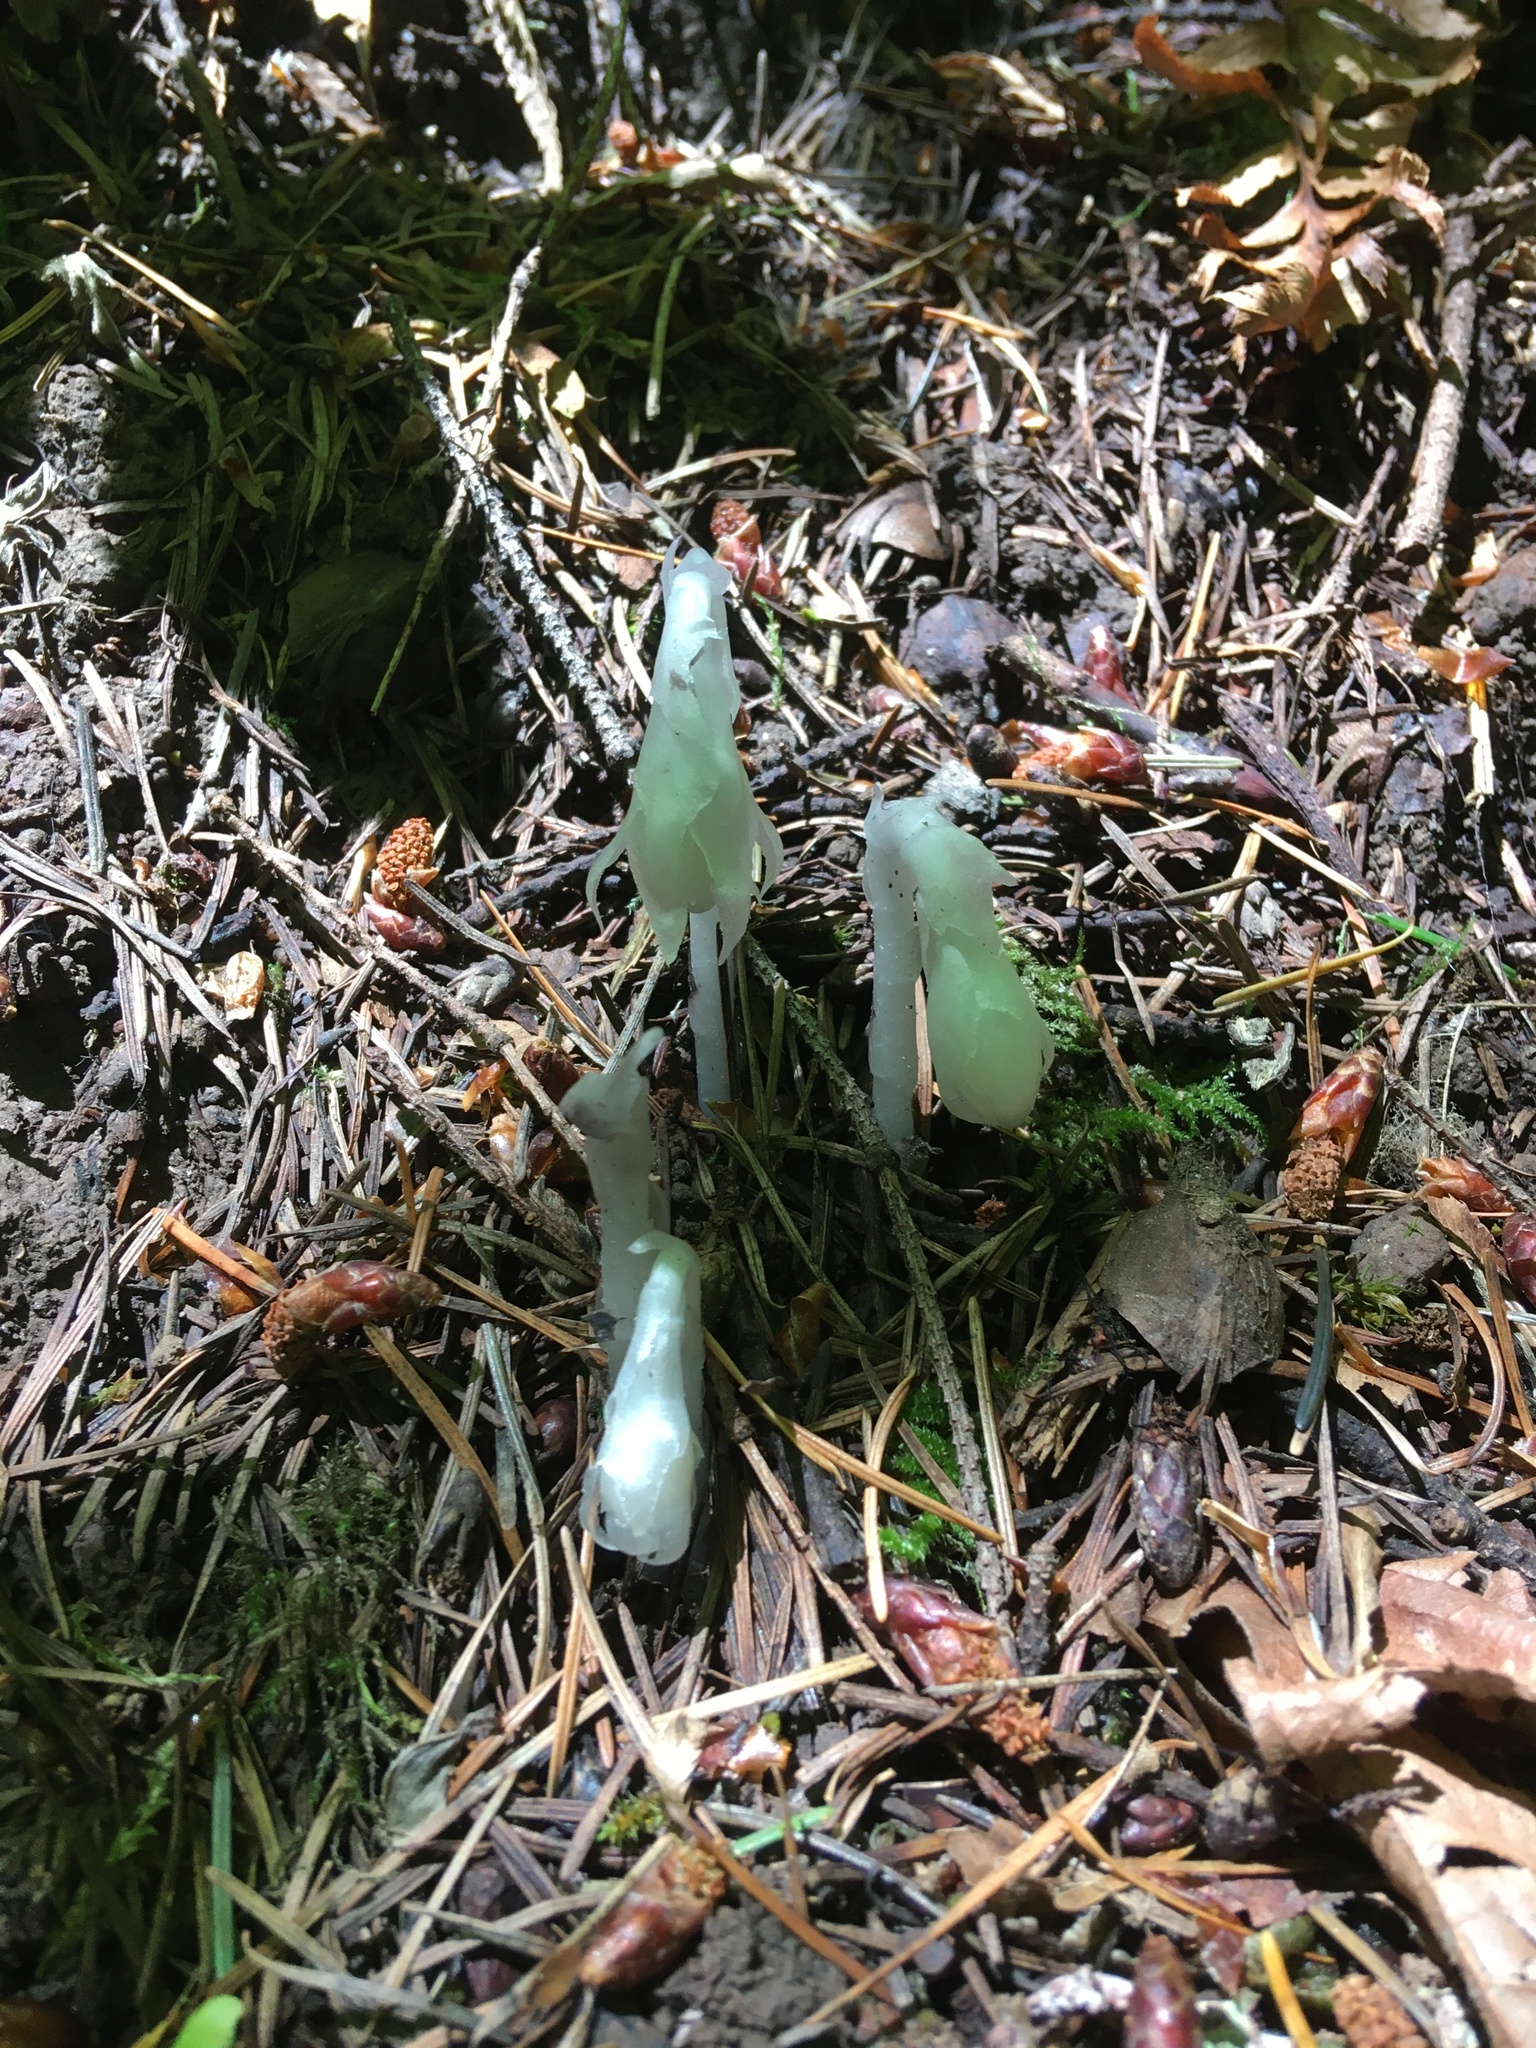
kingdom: Plantae
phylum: Tracheophyta
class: Magnoliopsida
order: Ericales
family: Ericaceae
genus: Monotropa
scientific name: Monotropa uniflora
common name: Convulsion root
